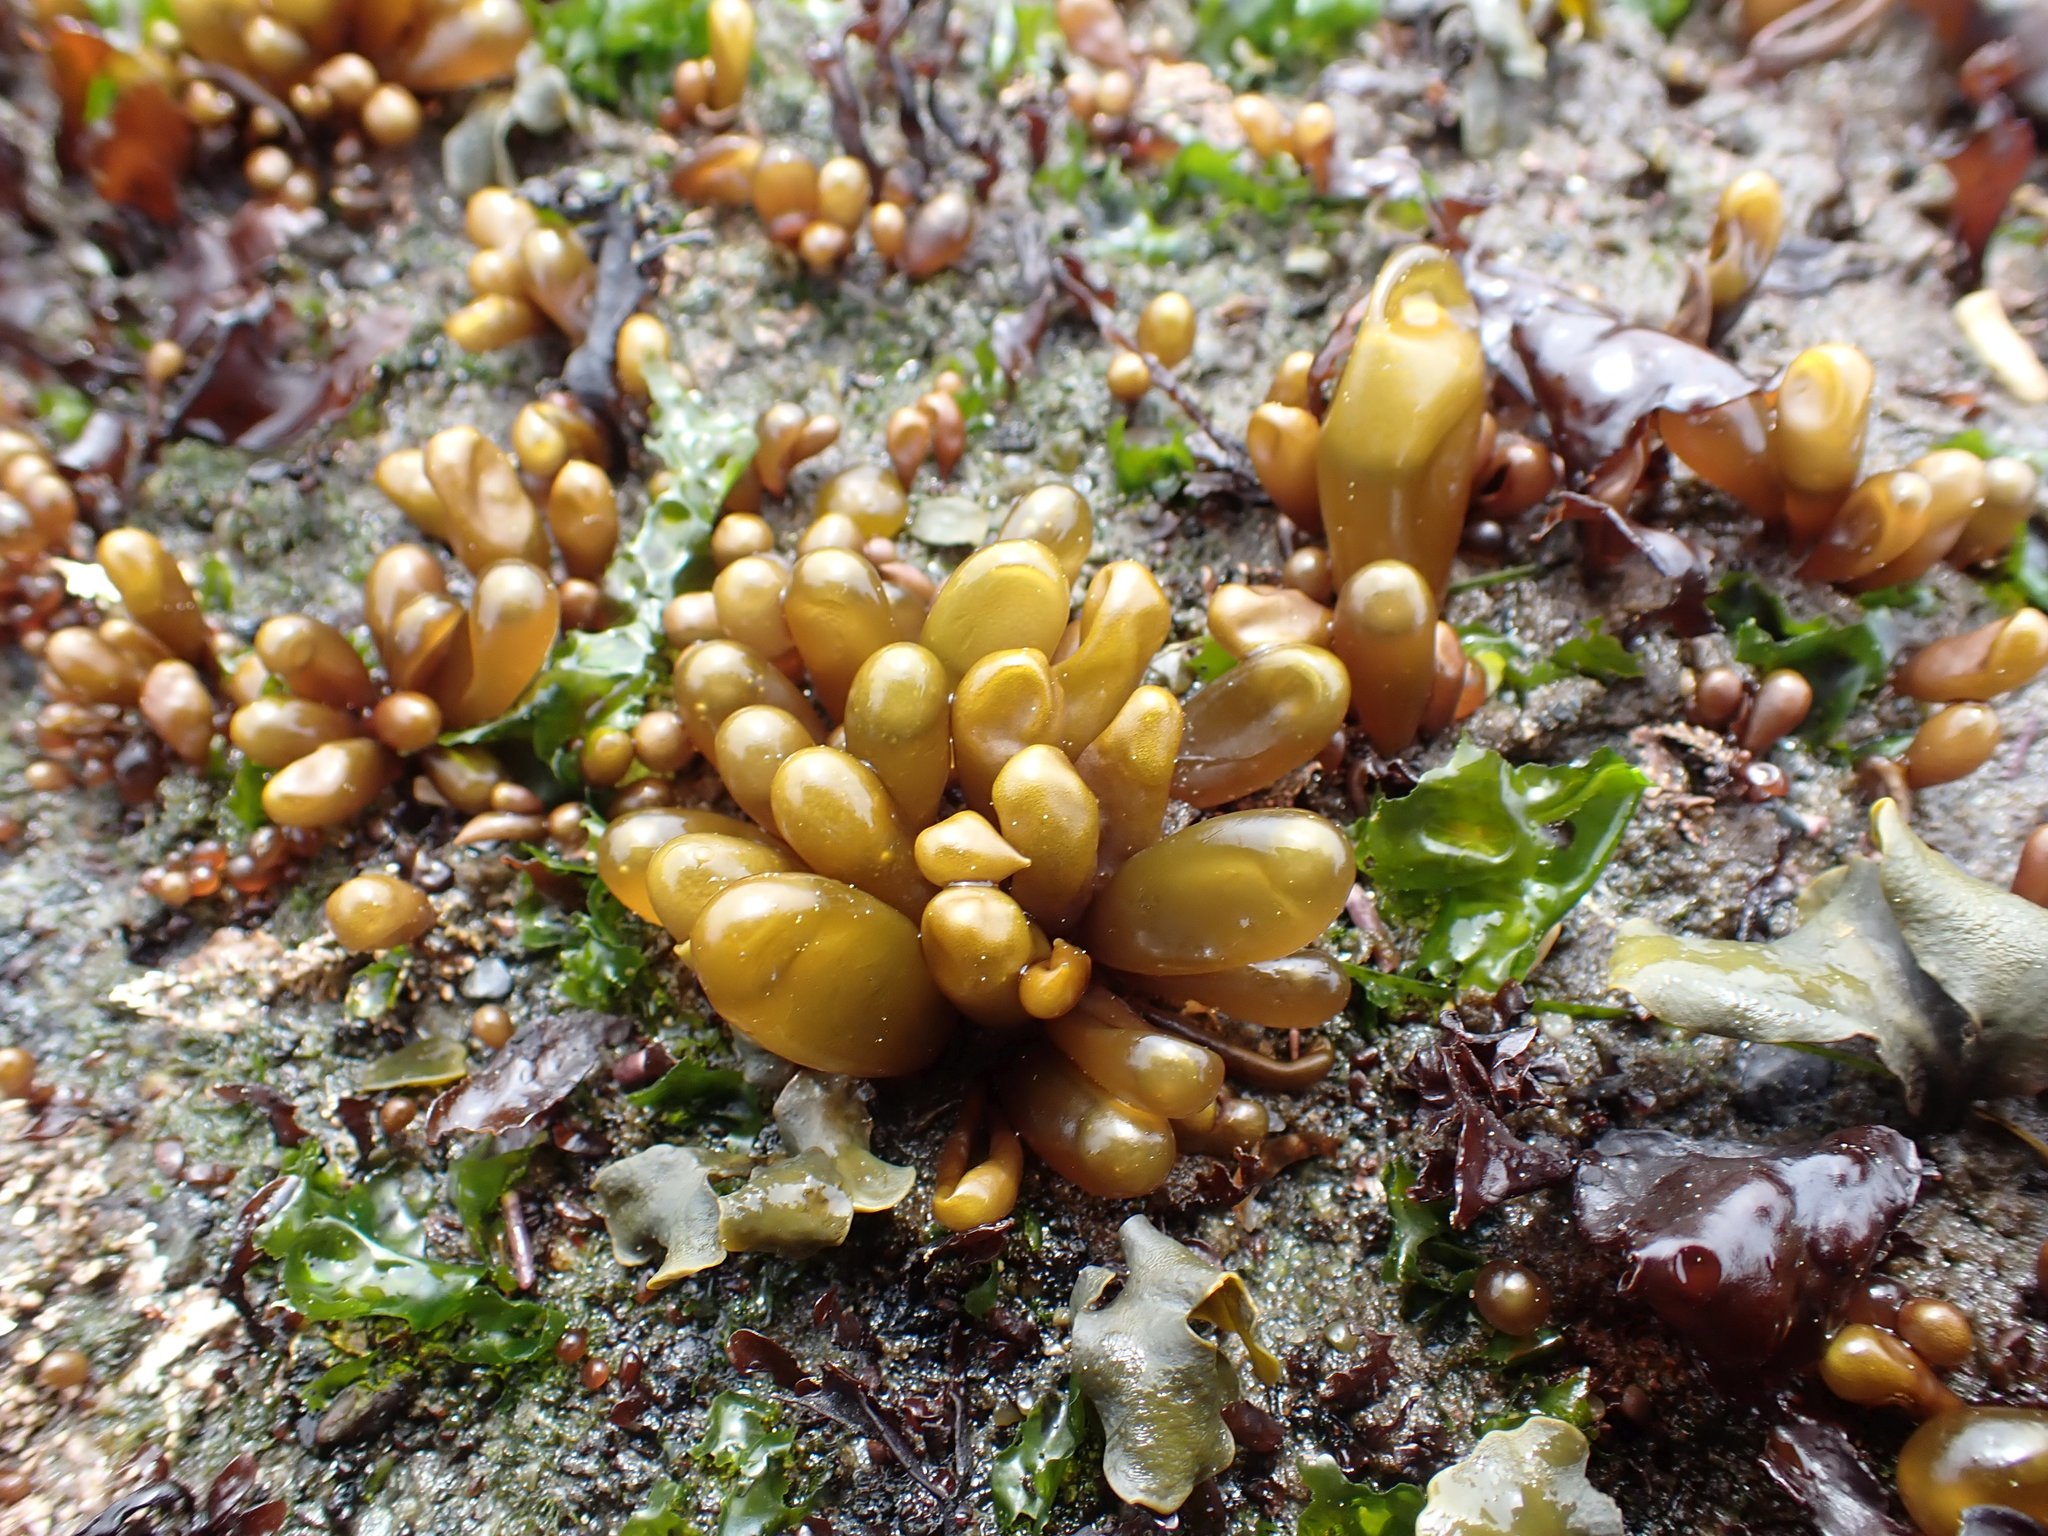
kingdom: Plantae
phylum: Rhodophyta
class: Florideophyceae
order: Palmariales
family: Palmariaceae
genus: Halosaccion
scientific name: Halosaccion glandiforme
